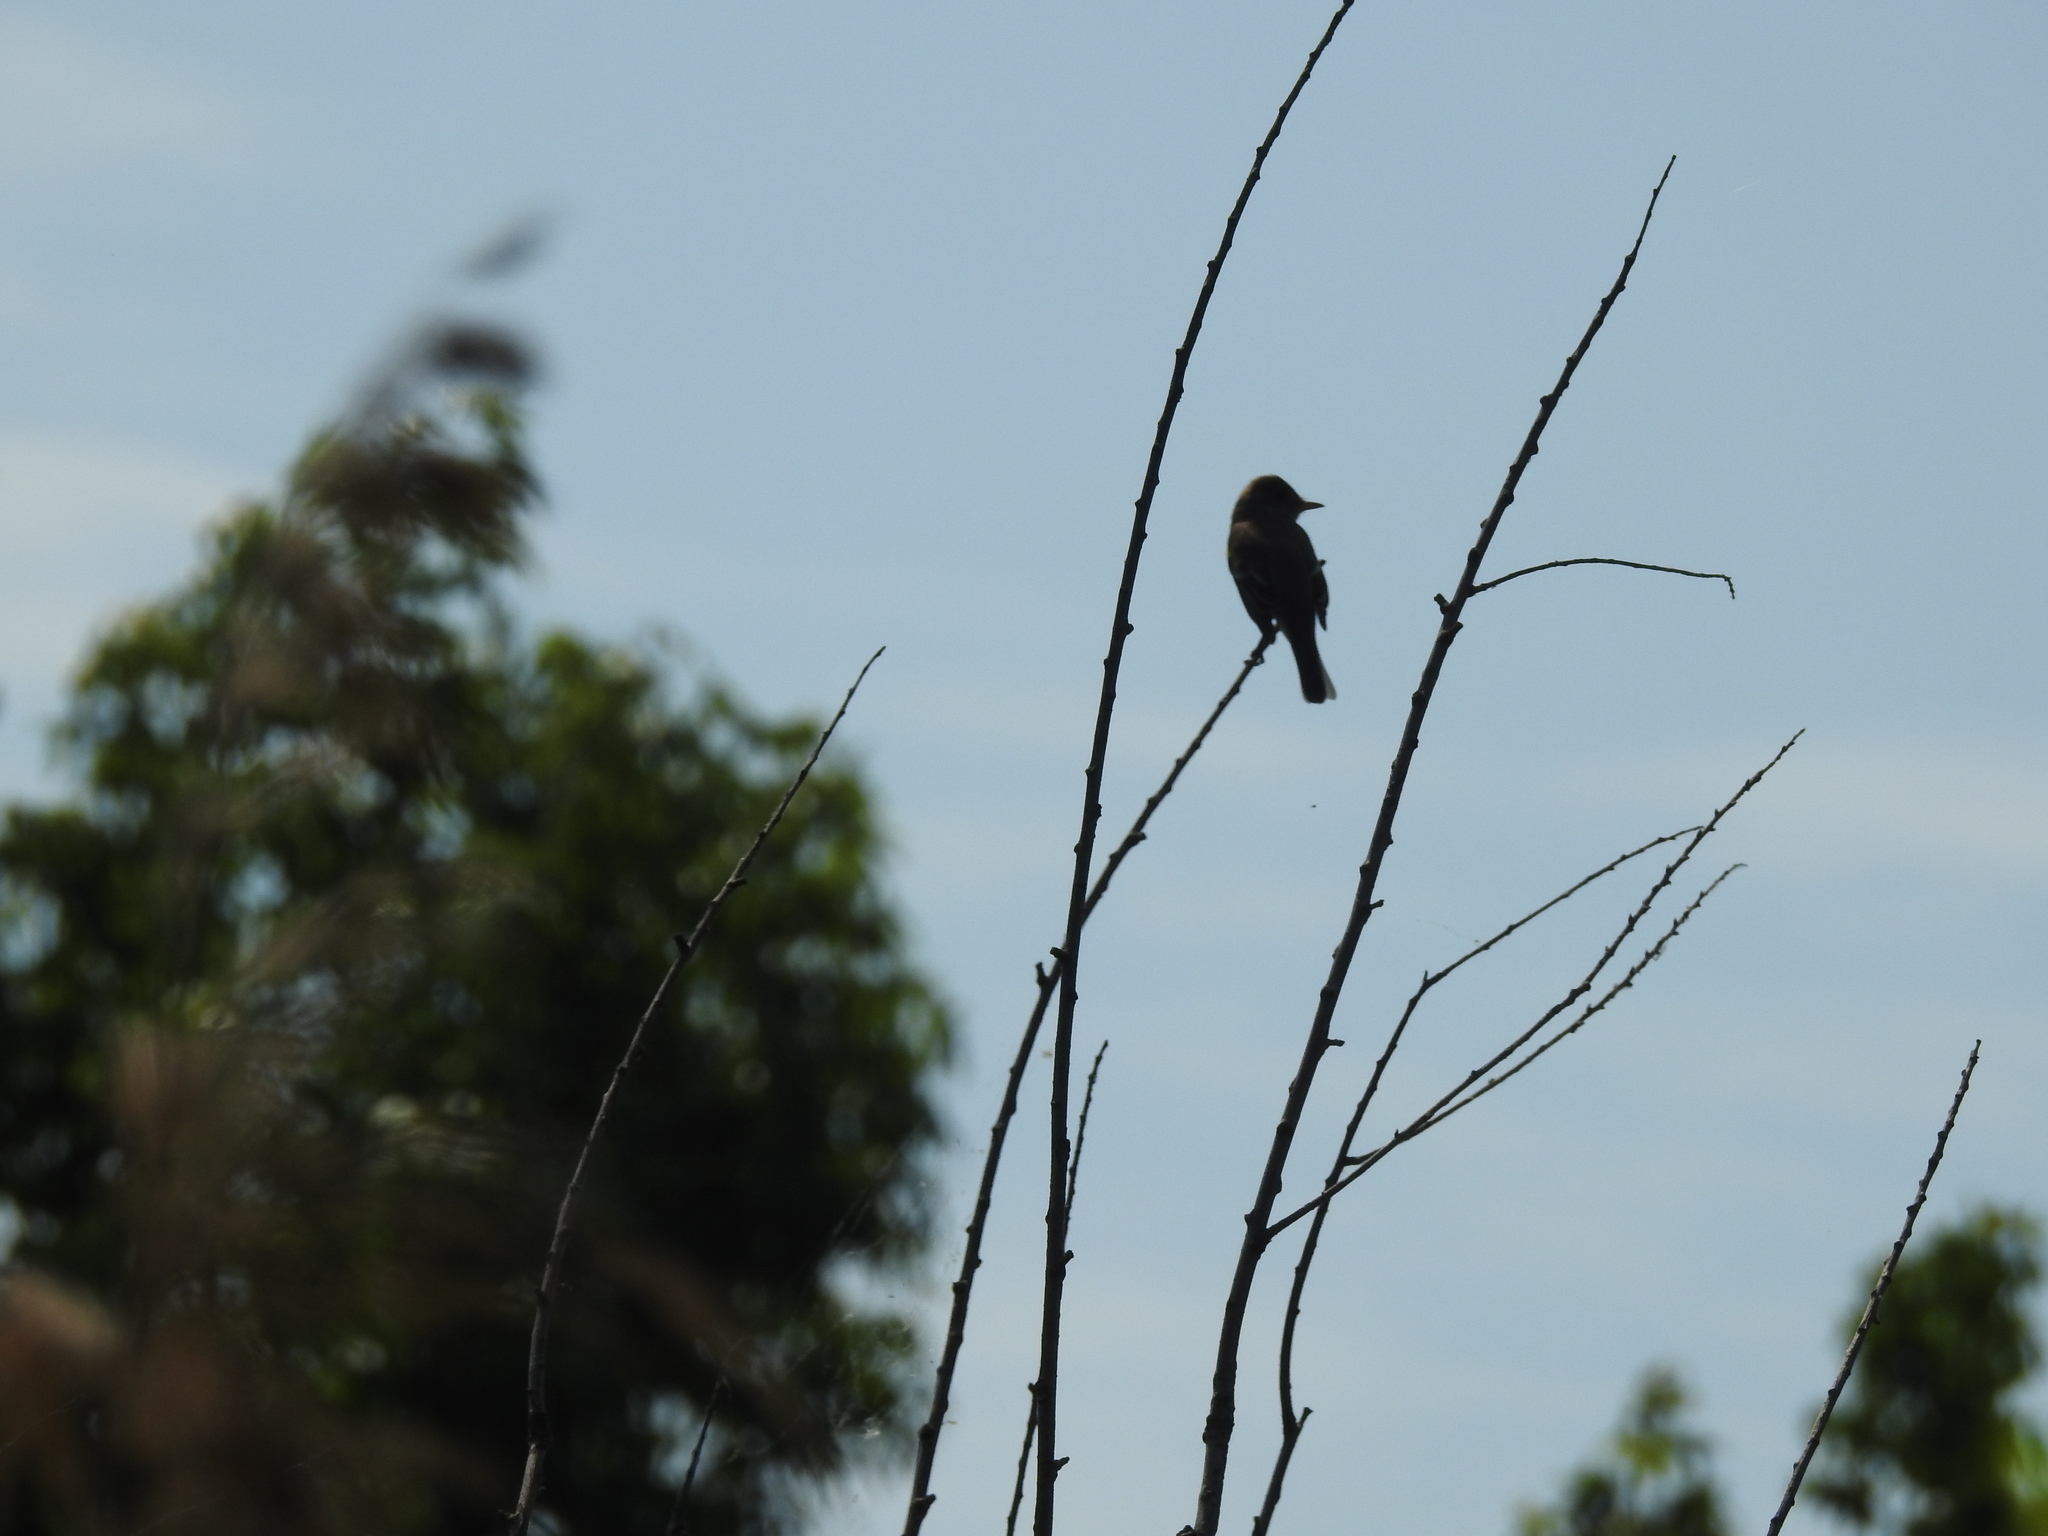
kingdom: Animalia
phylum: Chordata
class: Aves
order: Passeriformes
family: Tyrannidae
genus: Empidonax
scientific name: Empidonax traillii
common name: Willow flycatcher
